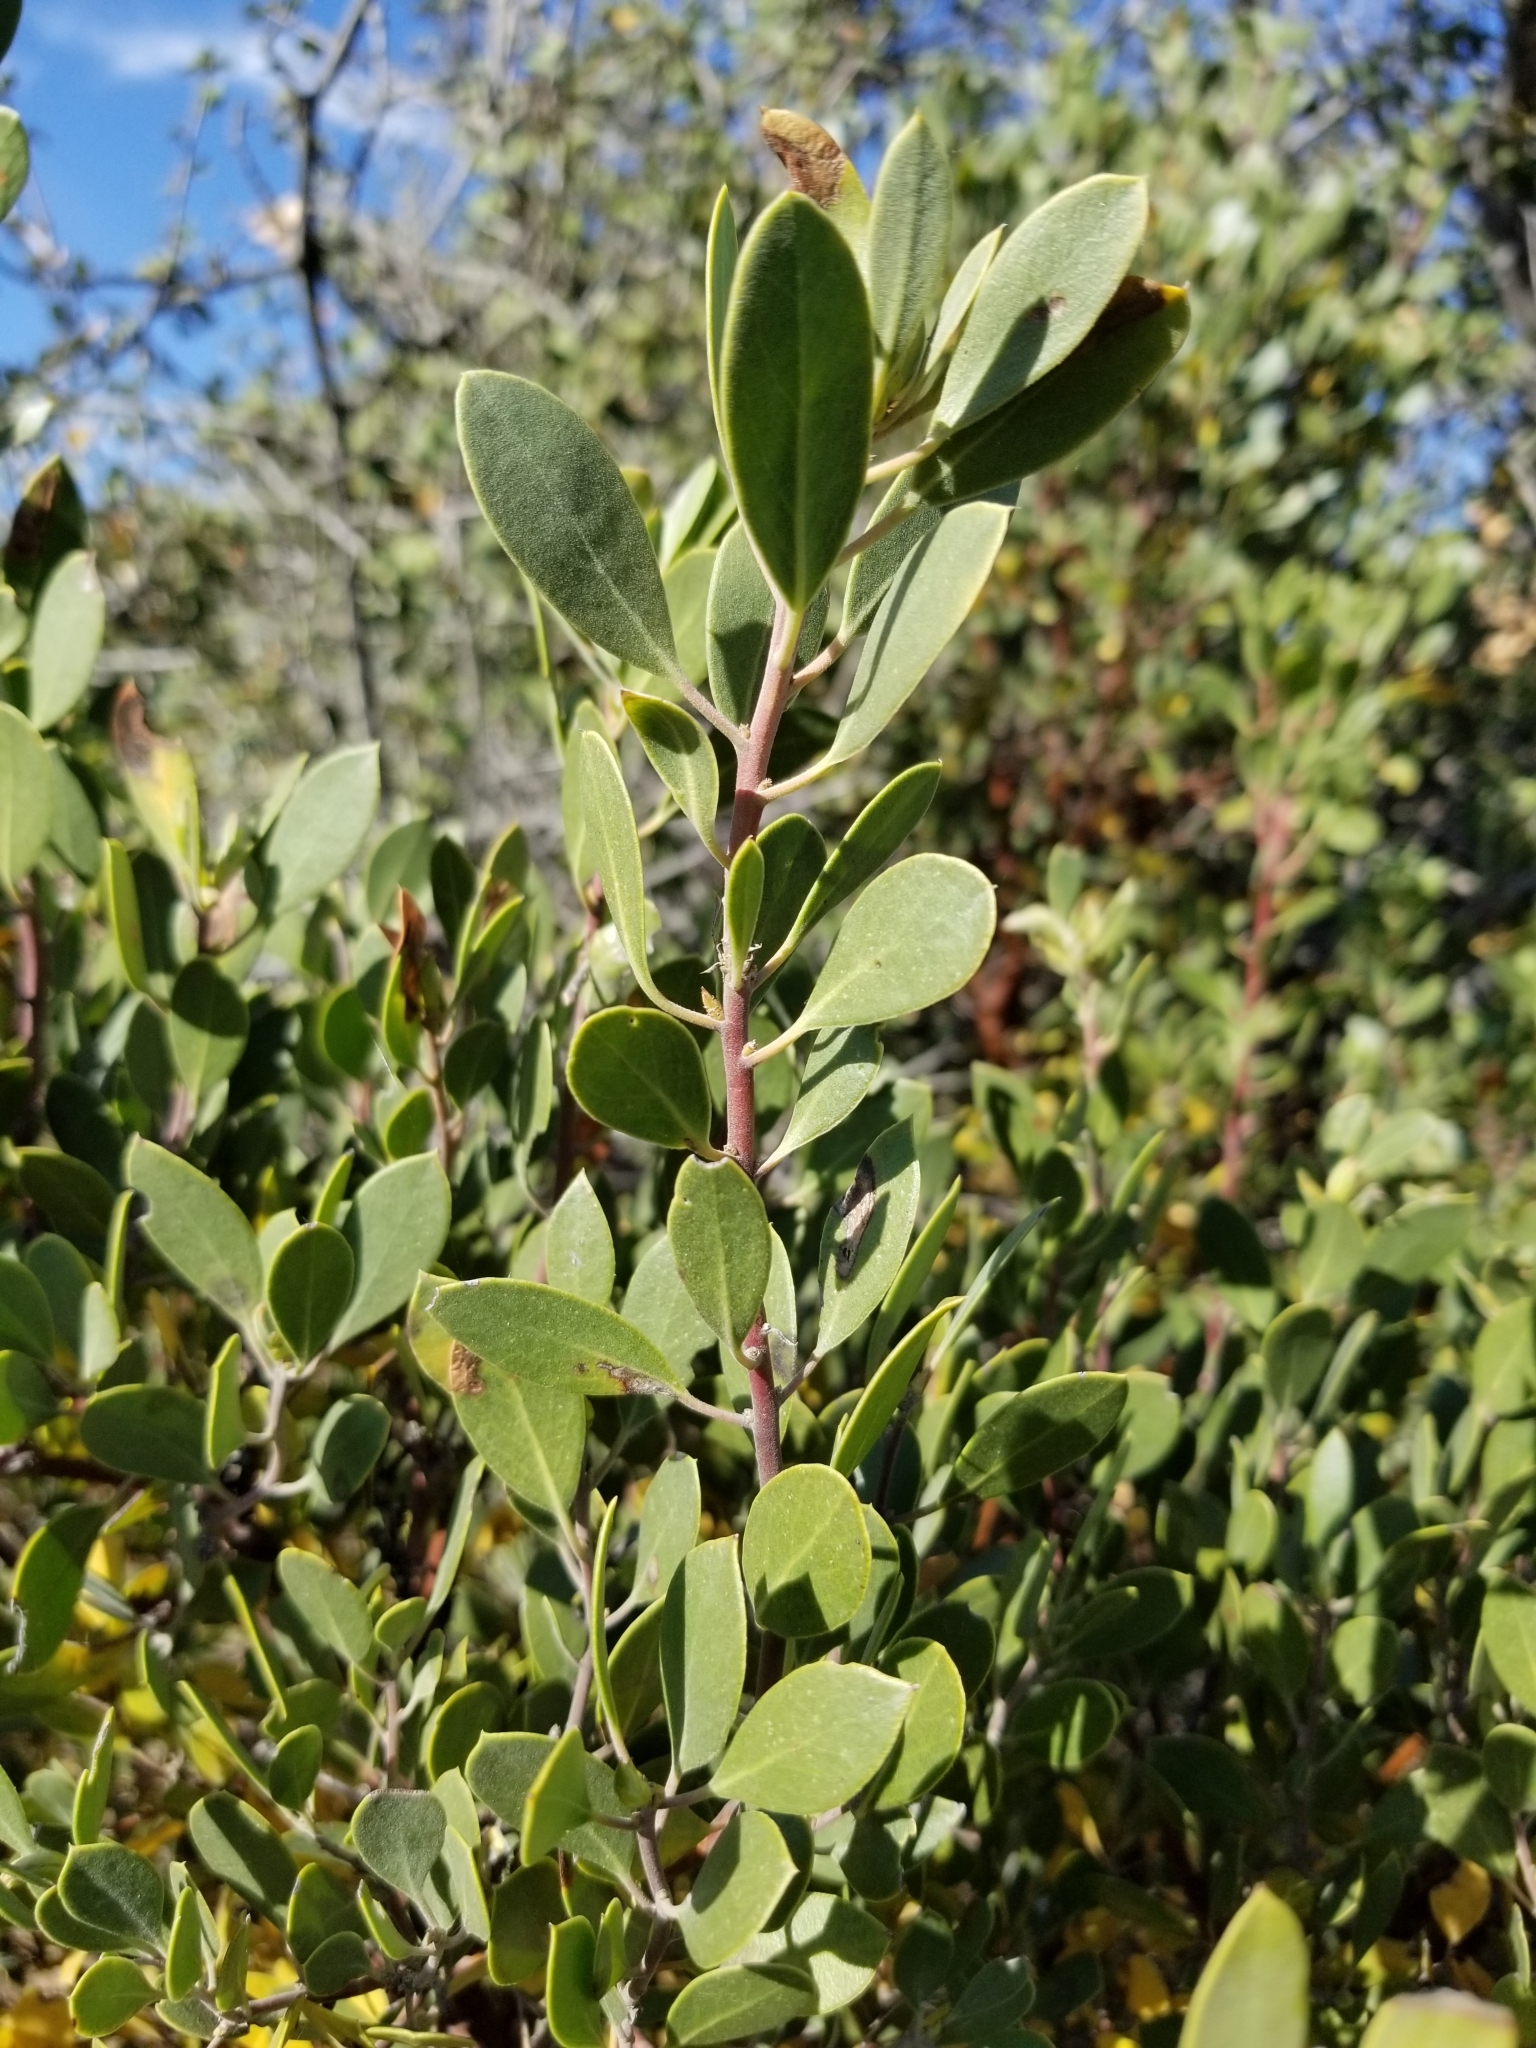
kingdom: Plantae
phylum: Tracheophyta
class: Magnoliopsida
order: Ericales
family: Ericaceae
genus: Arctostaphylos
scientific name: Arctostaphylos pungens
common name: Mexican manzanita
